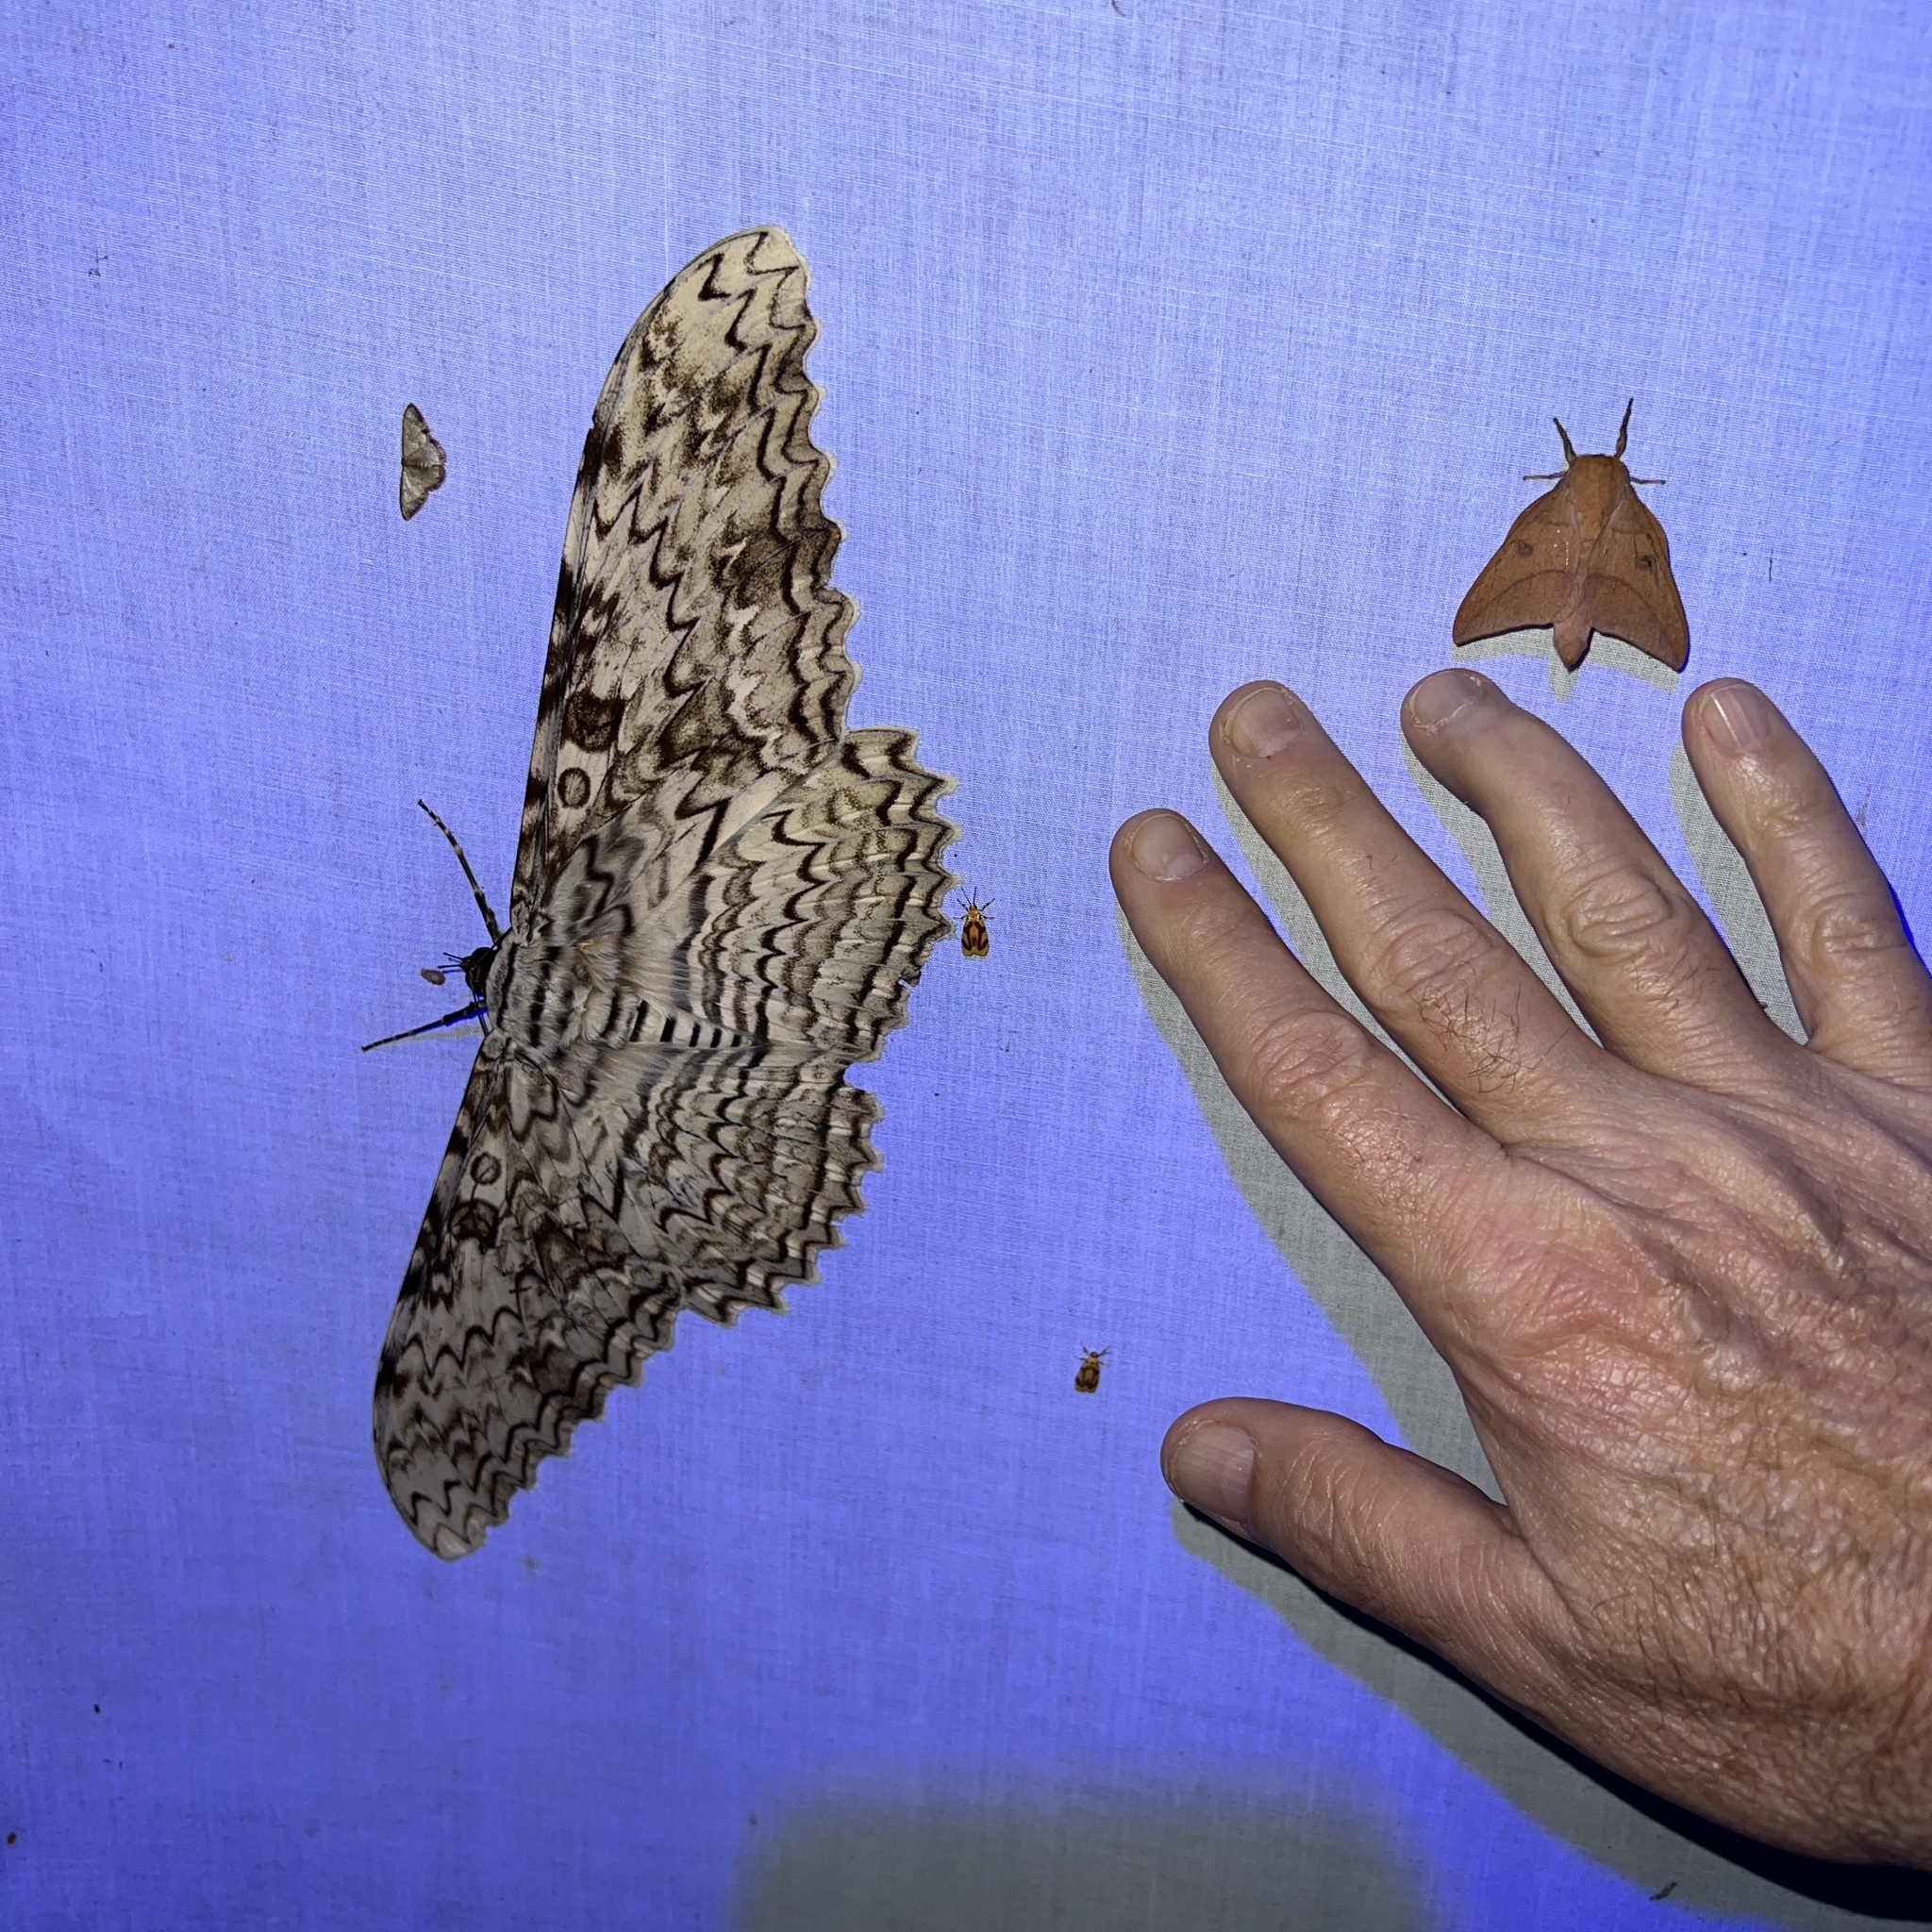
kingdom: Animalia
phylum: Arthropoda
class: Insecta
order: Lepidoptera
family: Erebidae
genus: Thysania
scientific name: Thysania agrippina
